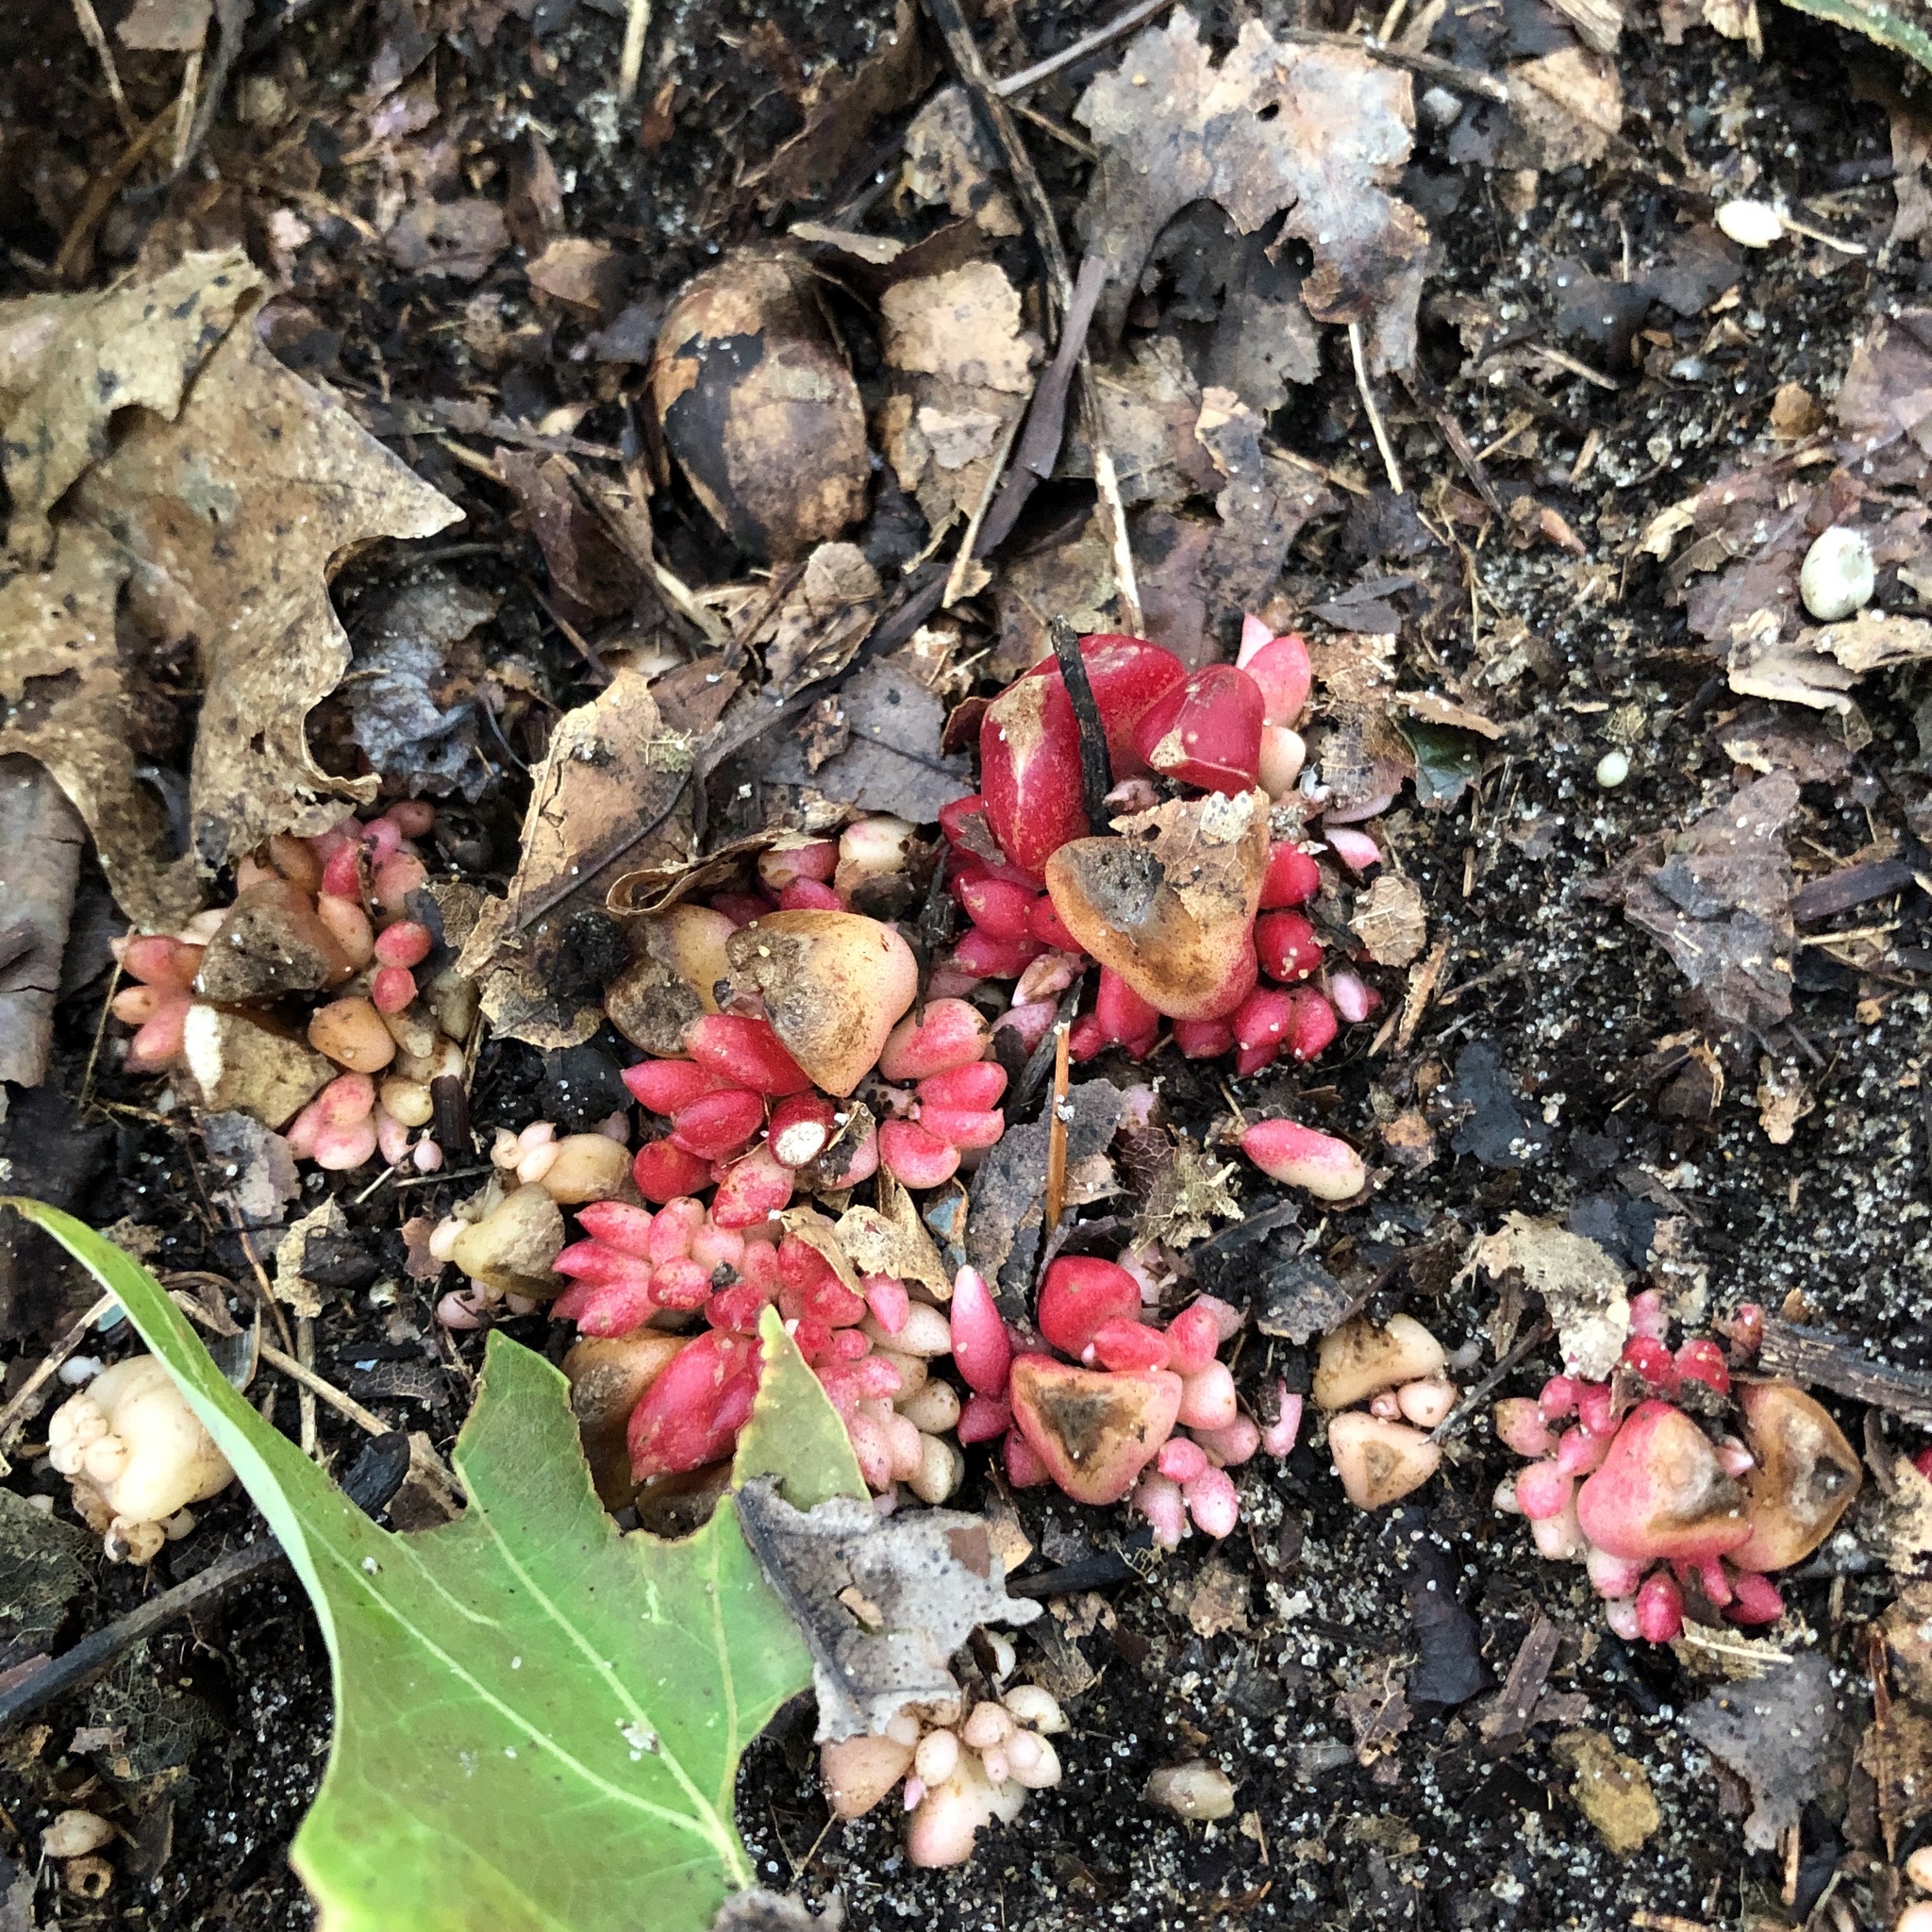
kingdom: Plantae
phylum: Tracheophyta
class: Magnoliopsida
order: Ranunculales
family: Papaveraceae
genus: Dicentra
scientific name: Dicentra cucullaria
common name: Dutchman's breeches
